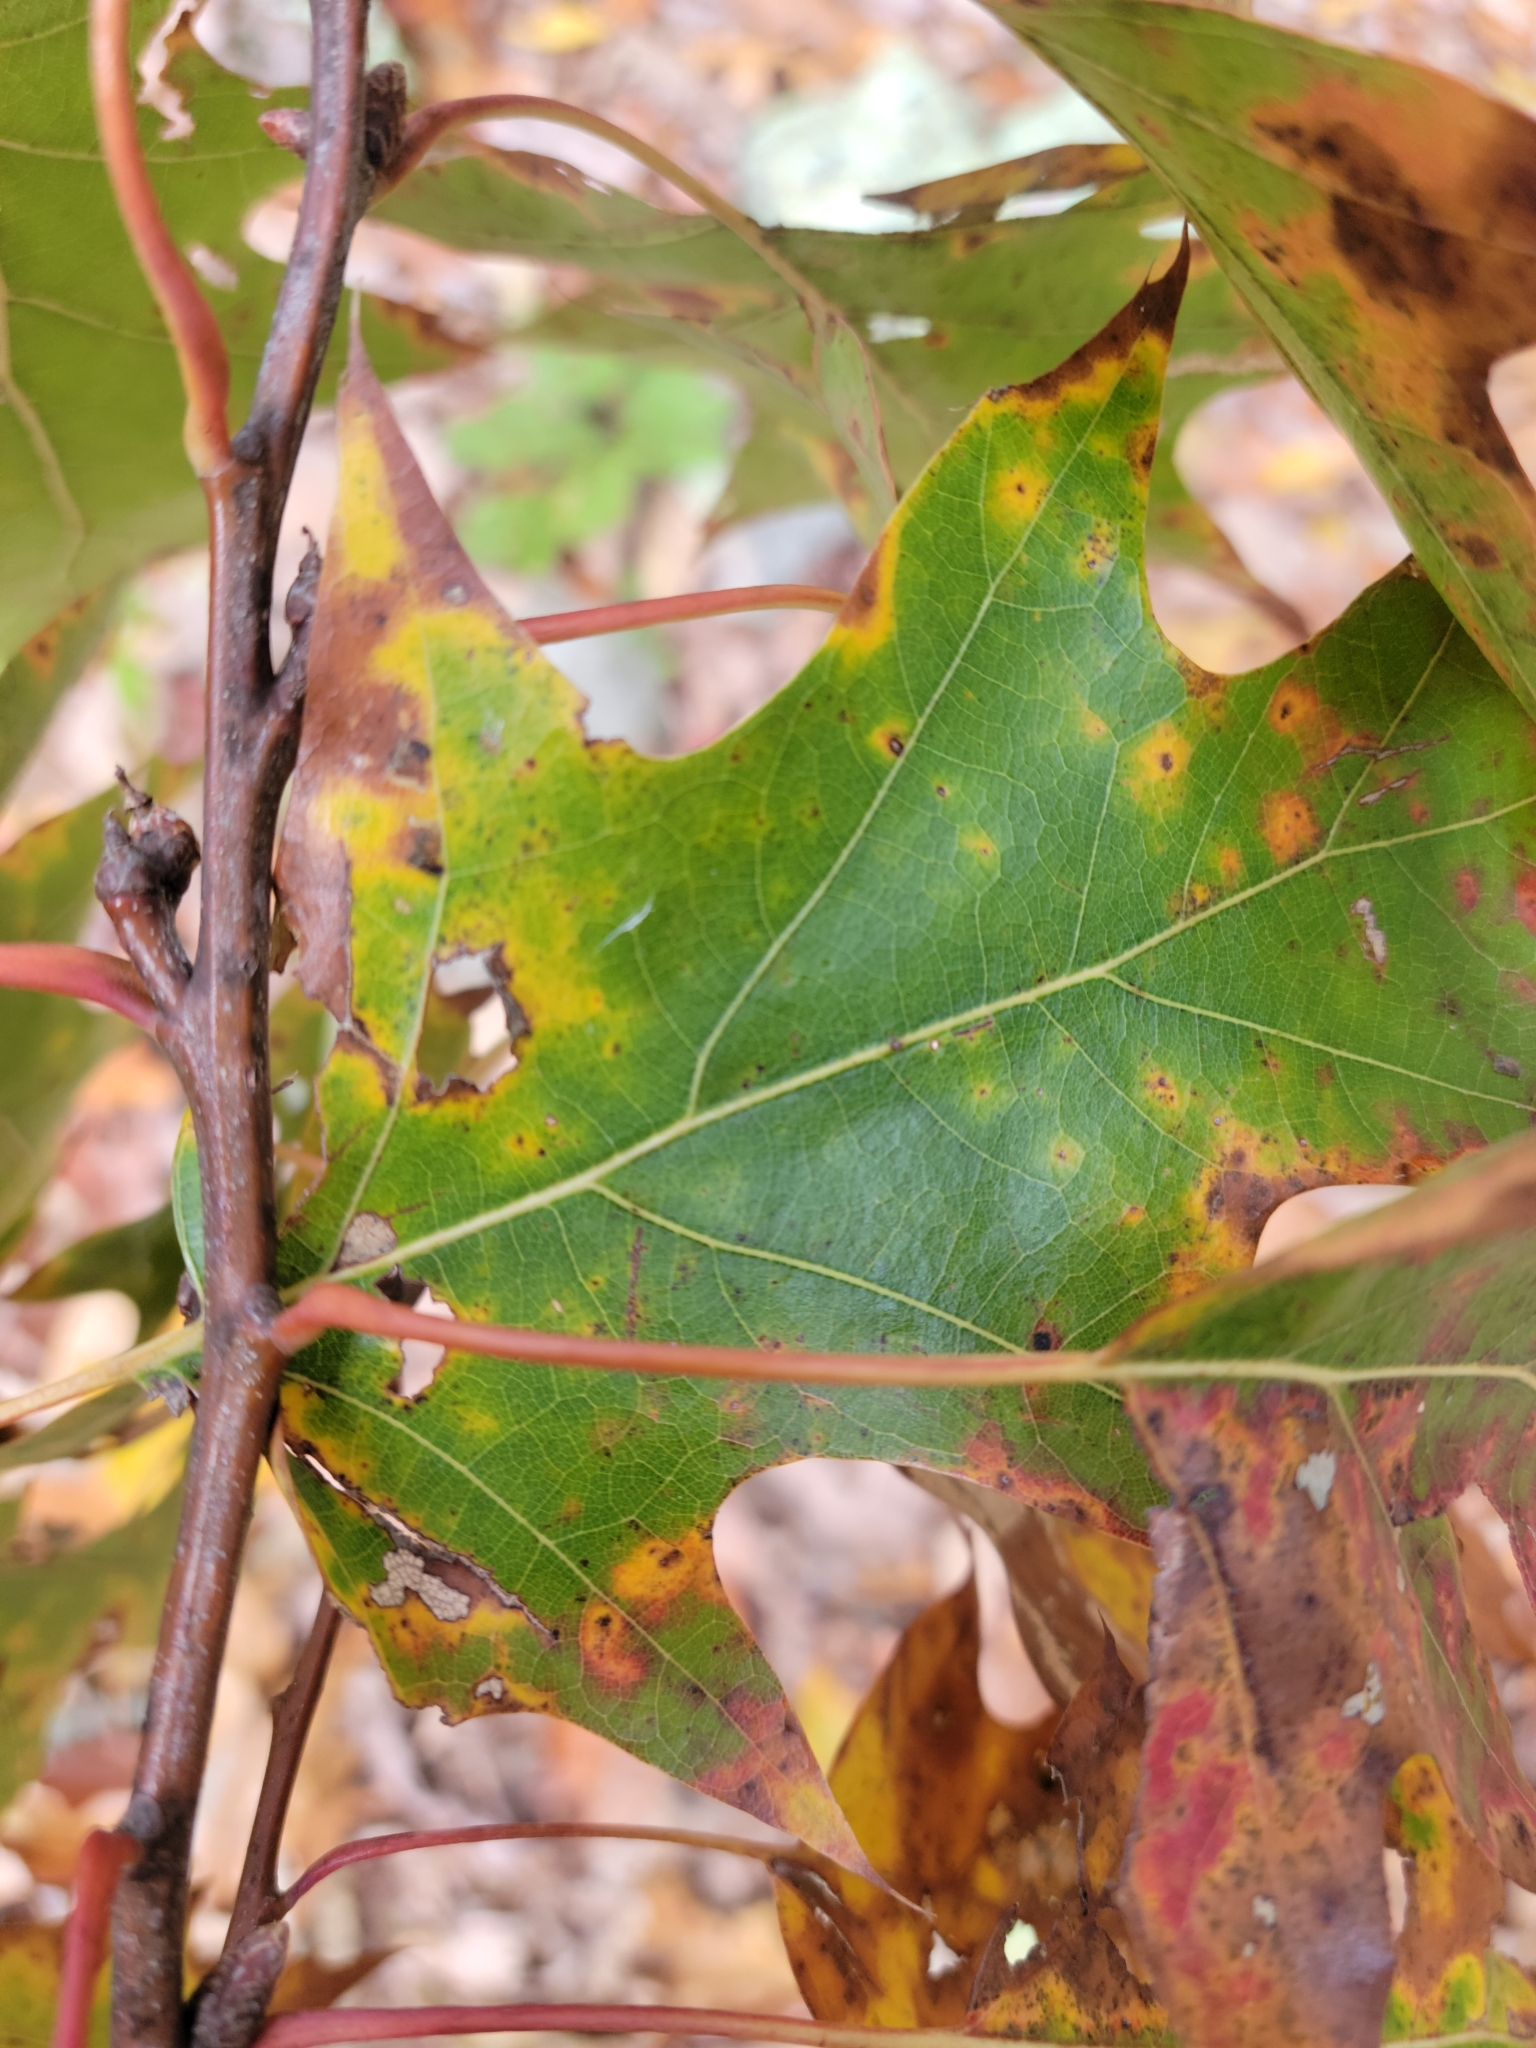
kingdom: Plantae
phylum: Tracheophyta
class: Magnoliopsida
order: Fagales
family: Fagaceae
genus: Quercus
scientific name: Quercus rubra
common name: Red oak
